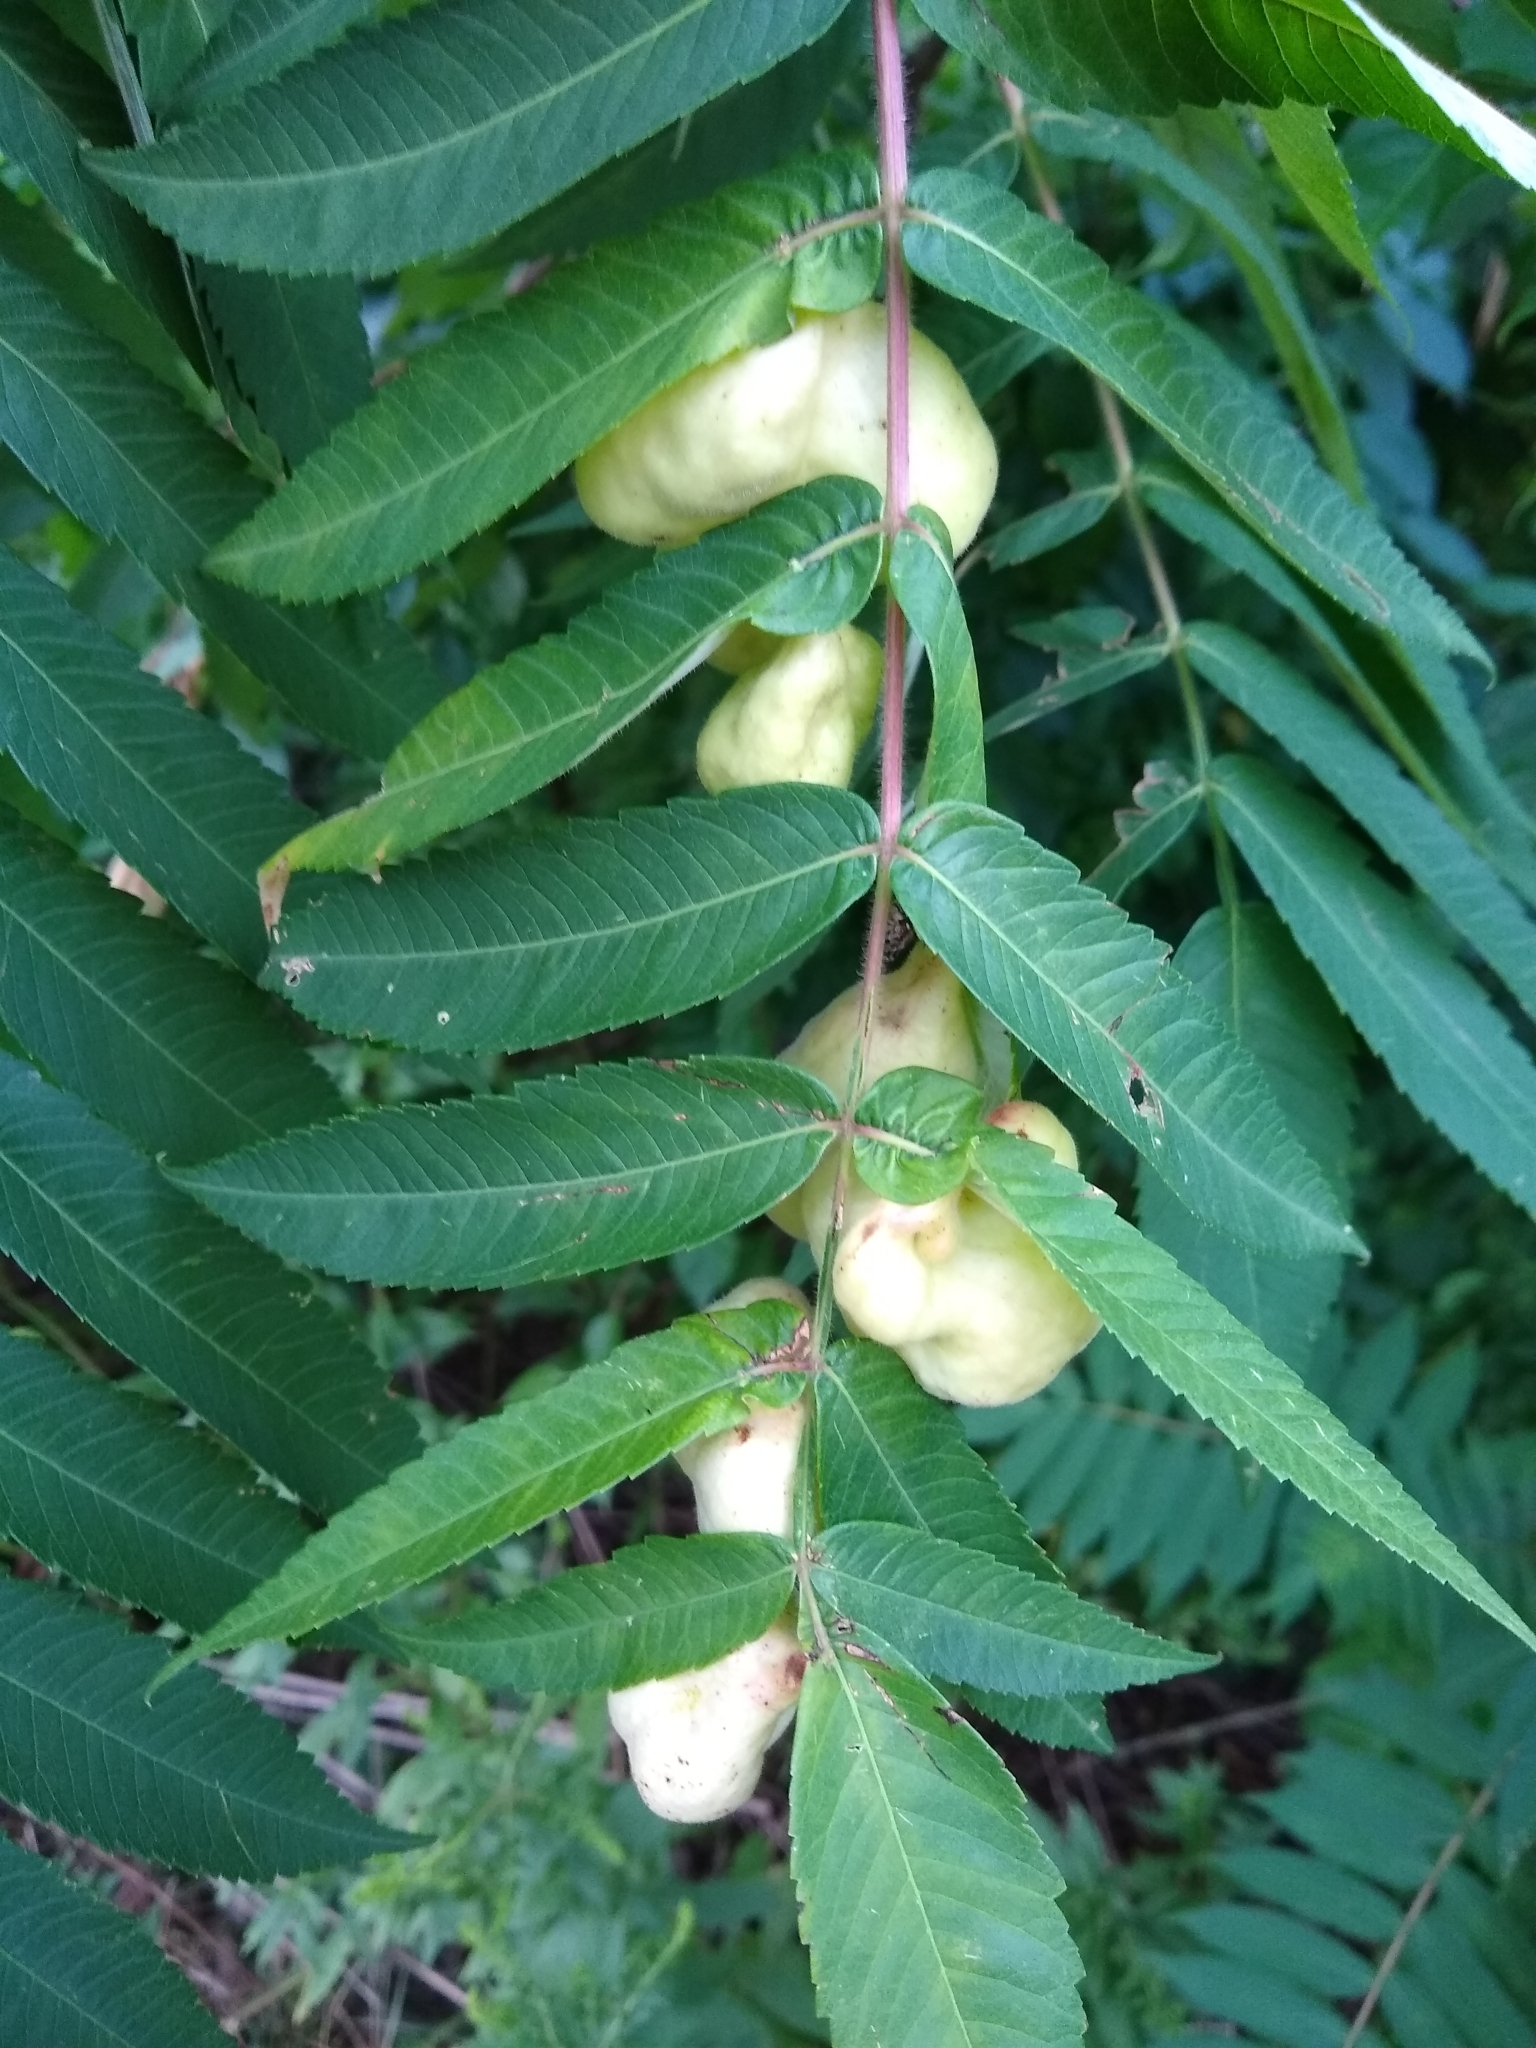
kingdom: Animalia
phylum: Arthropoda
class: Insecta
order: Hemiptera
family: Aphididae
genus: Melaphis
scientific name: Melaphis rhois
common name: Sumac gall aphid
